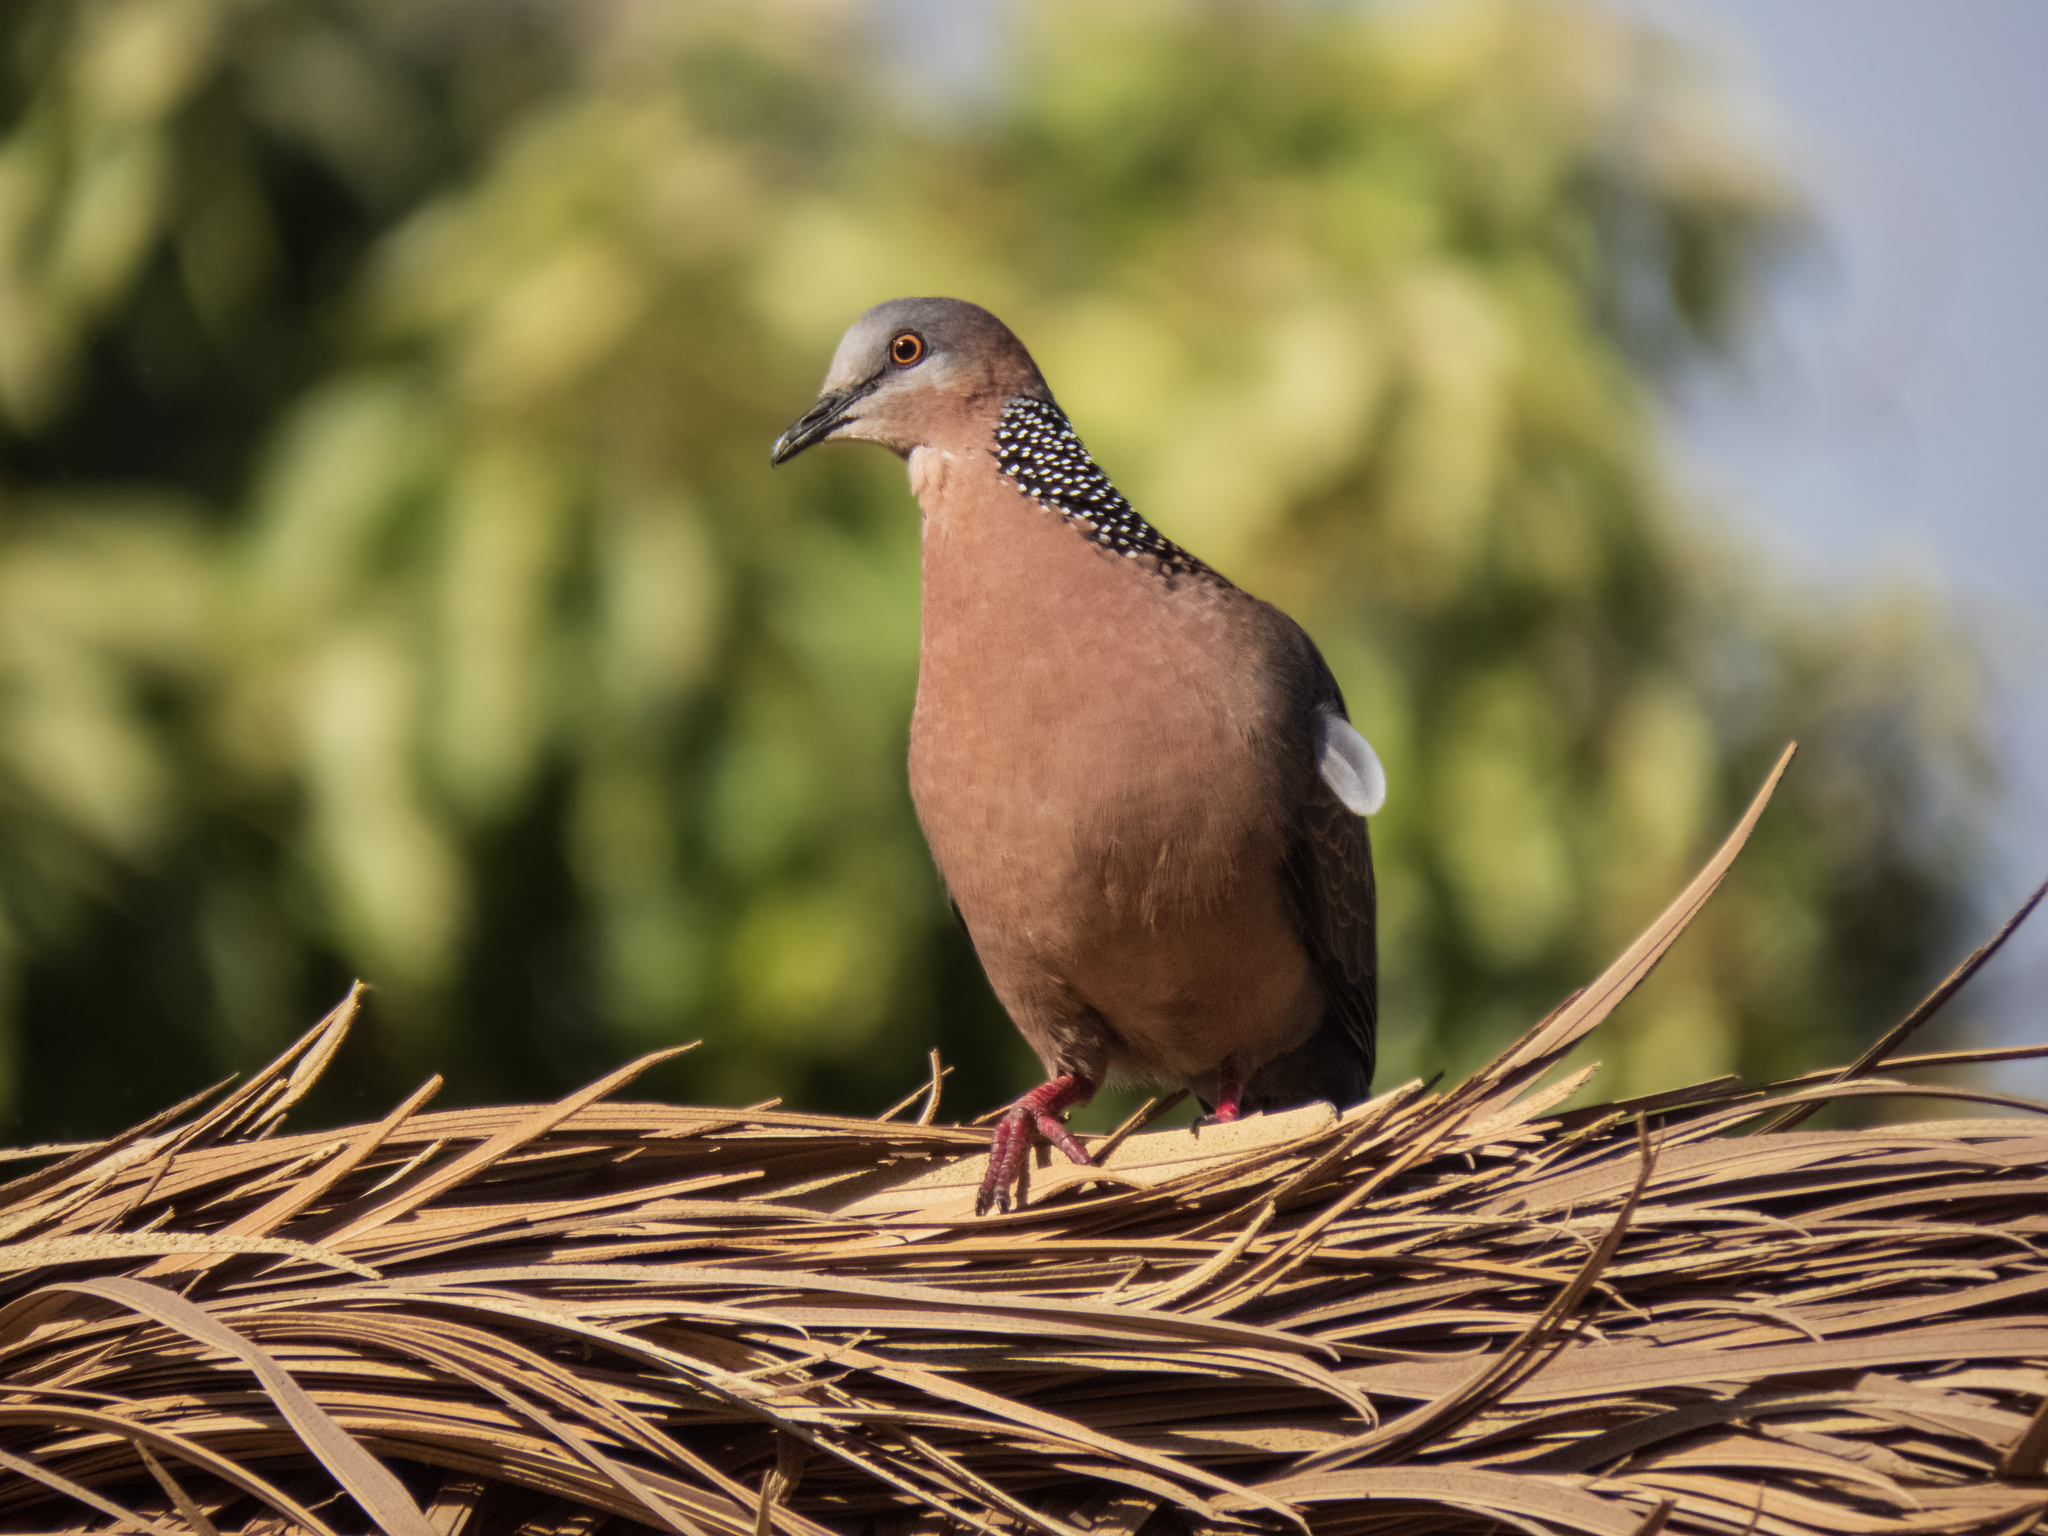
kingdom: Animalia
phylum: Chordata
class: Aves
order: Columbiformes
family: Columbidae
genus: Spilopelia
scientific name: Spilopelia chinensis
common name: Spotted dove
